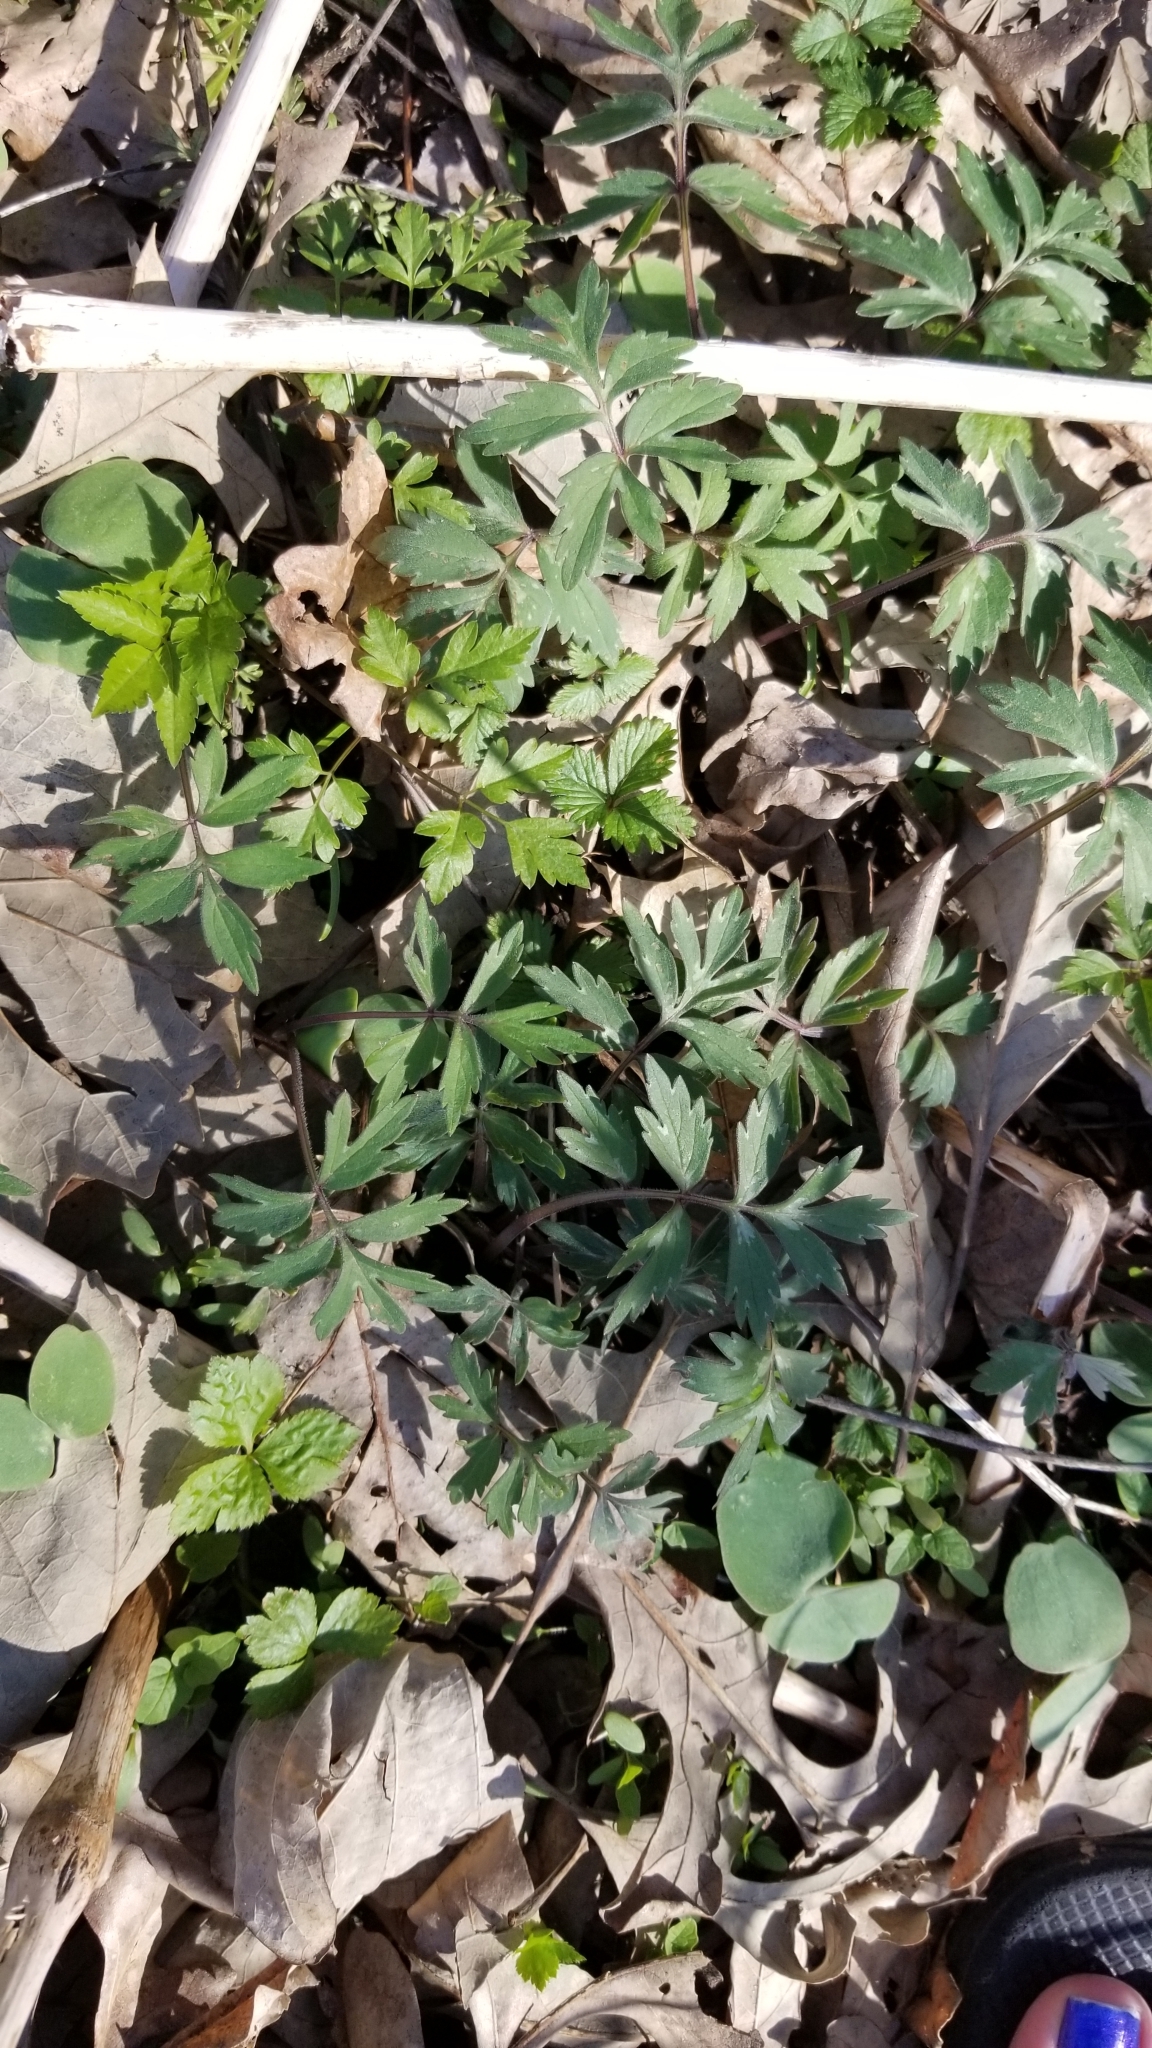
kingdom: Plantae
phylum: Tracheophyta
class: Magnoliopsida
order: Boraginales
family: Hydrophyllaceae
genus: Hydrophyllum
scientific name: Hydrophyllum virginianum
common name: Virginia waterleaf
